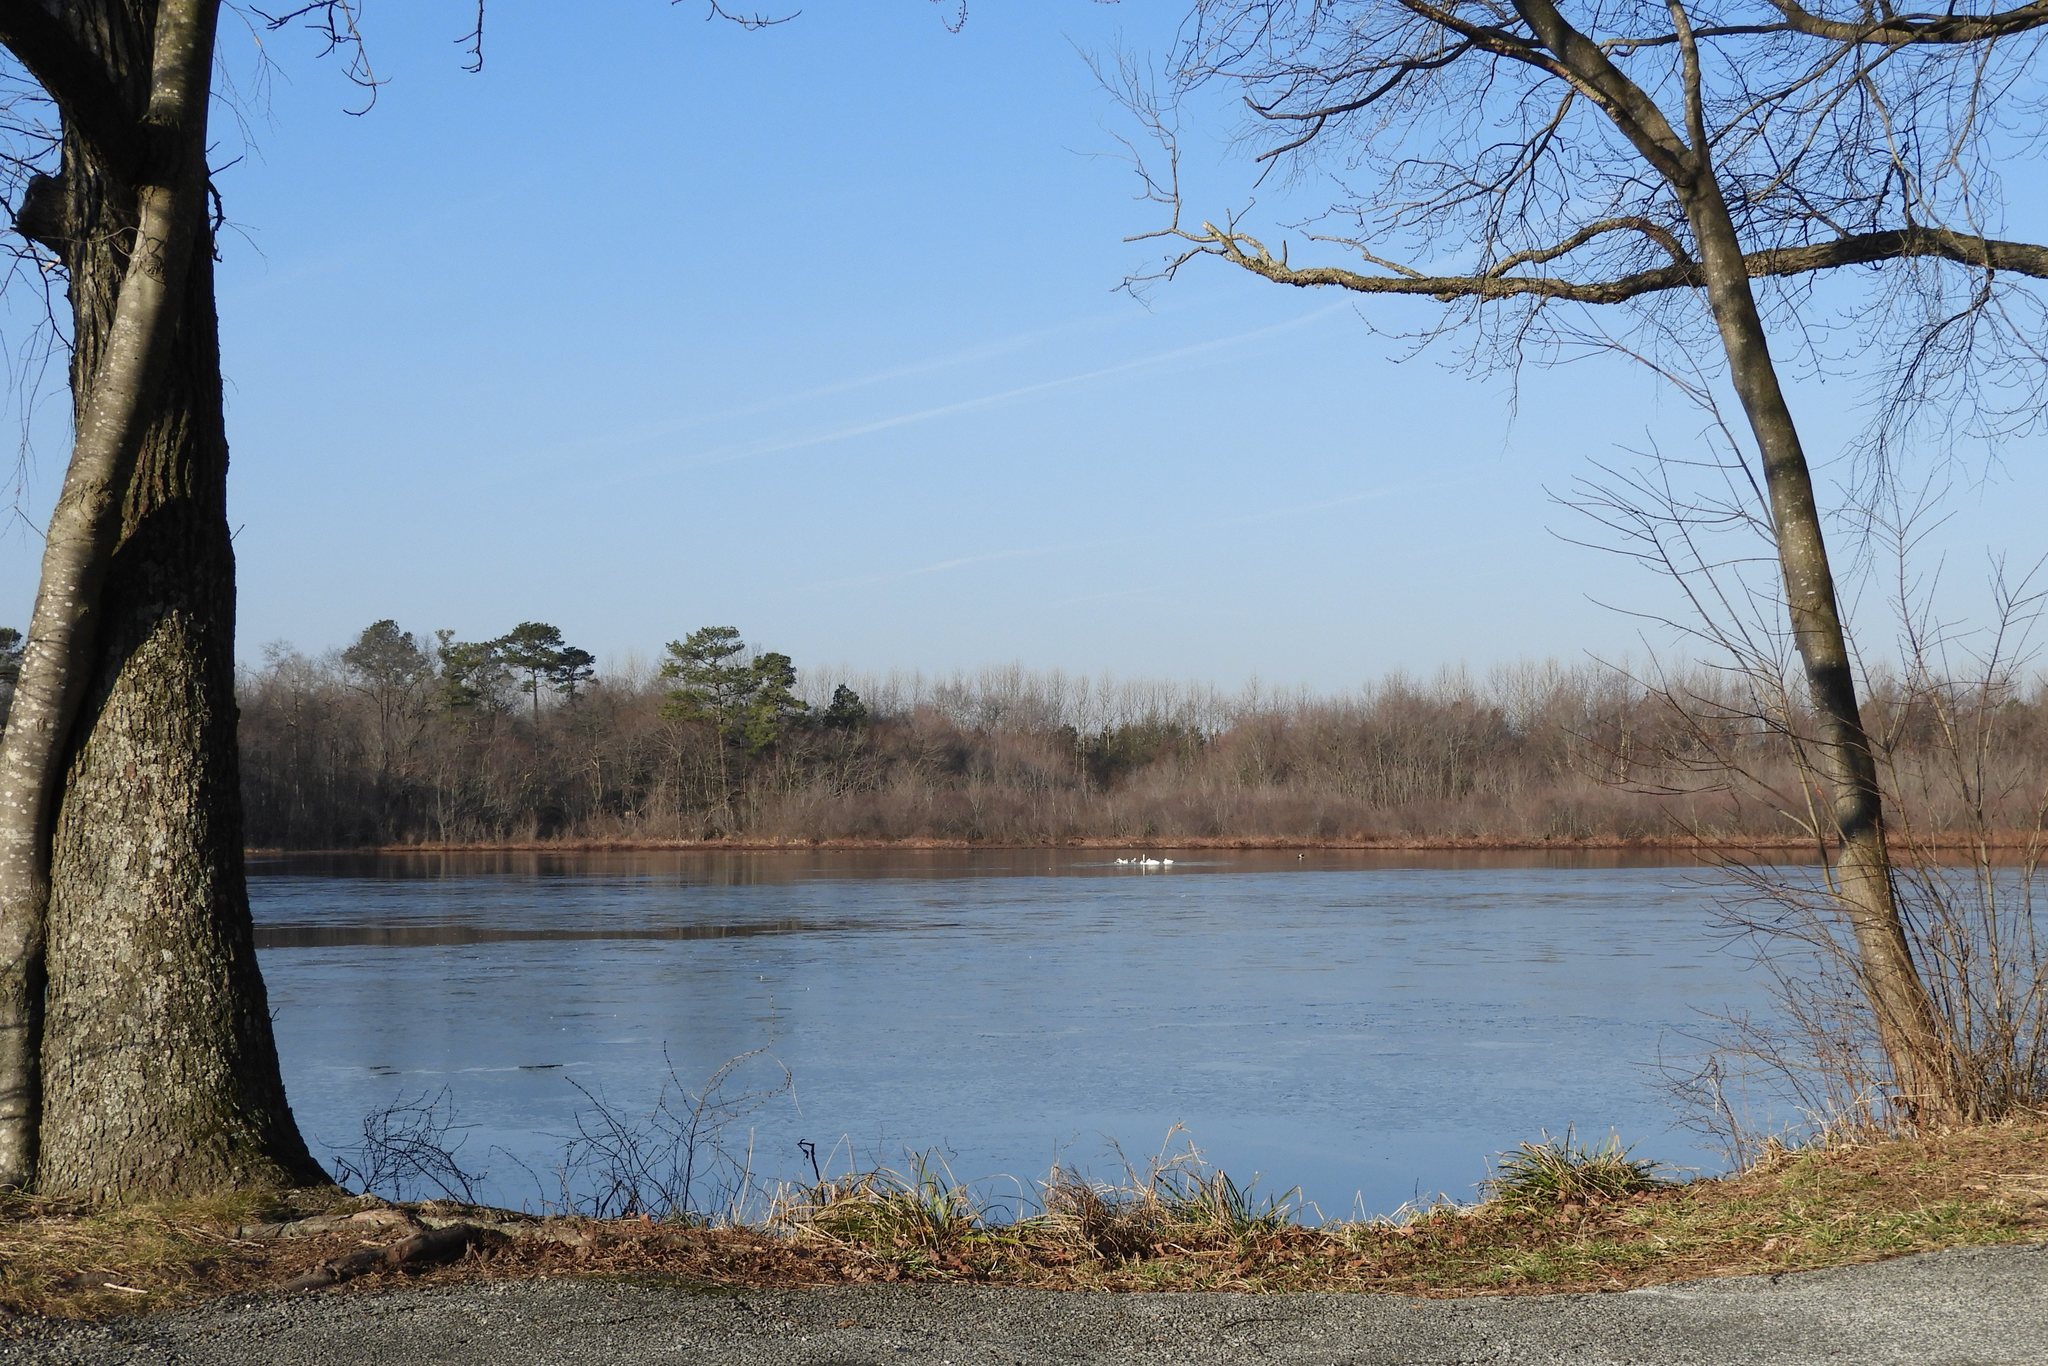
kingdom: Animalia
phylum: Chordata
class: Aves
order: Anseriformes
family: Anatidae
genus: Lophodytes
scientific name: Lophodytes cucullatus
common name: Hooded merganser
